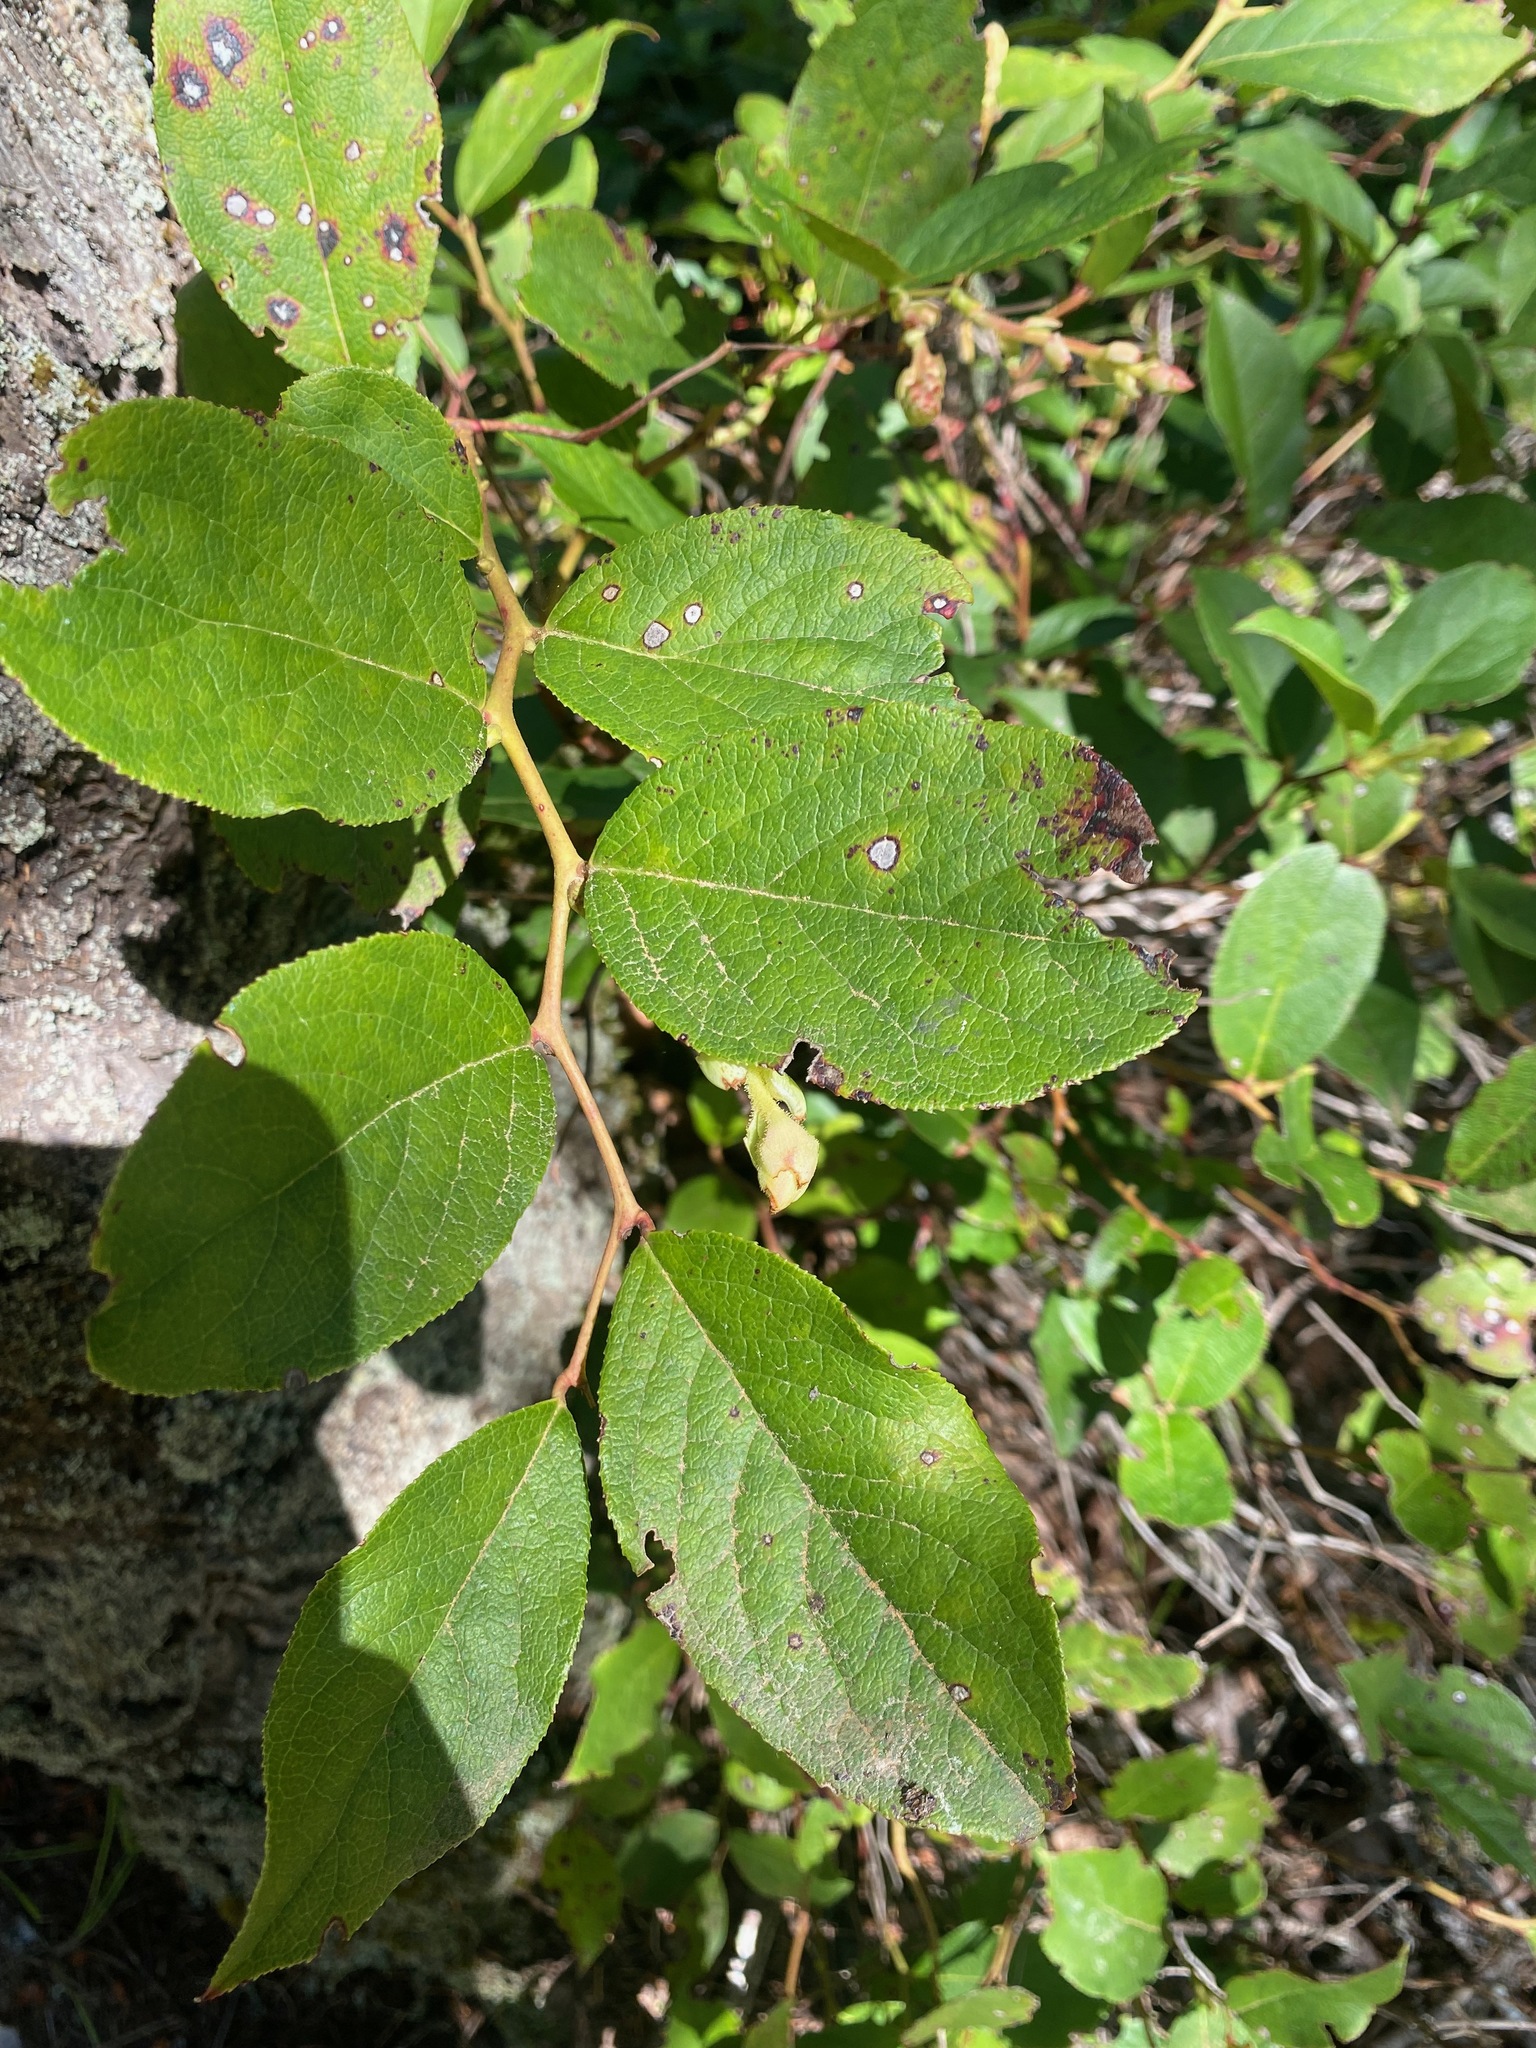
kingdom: Plantae
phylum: Tracheophyta
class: Magnoliopsida
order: Ericales
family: Ericaceae
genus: Gaultheria
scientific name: Gaultheria shallon
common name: Shallon
